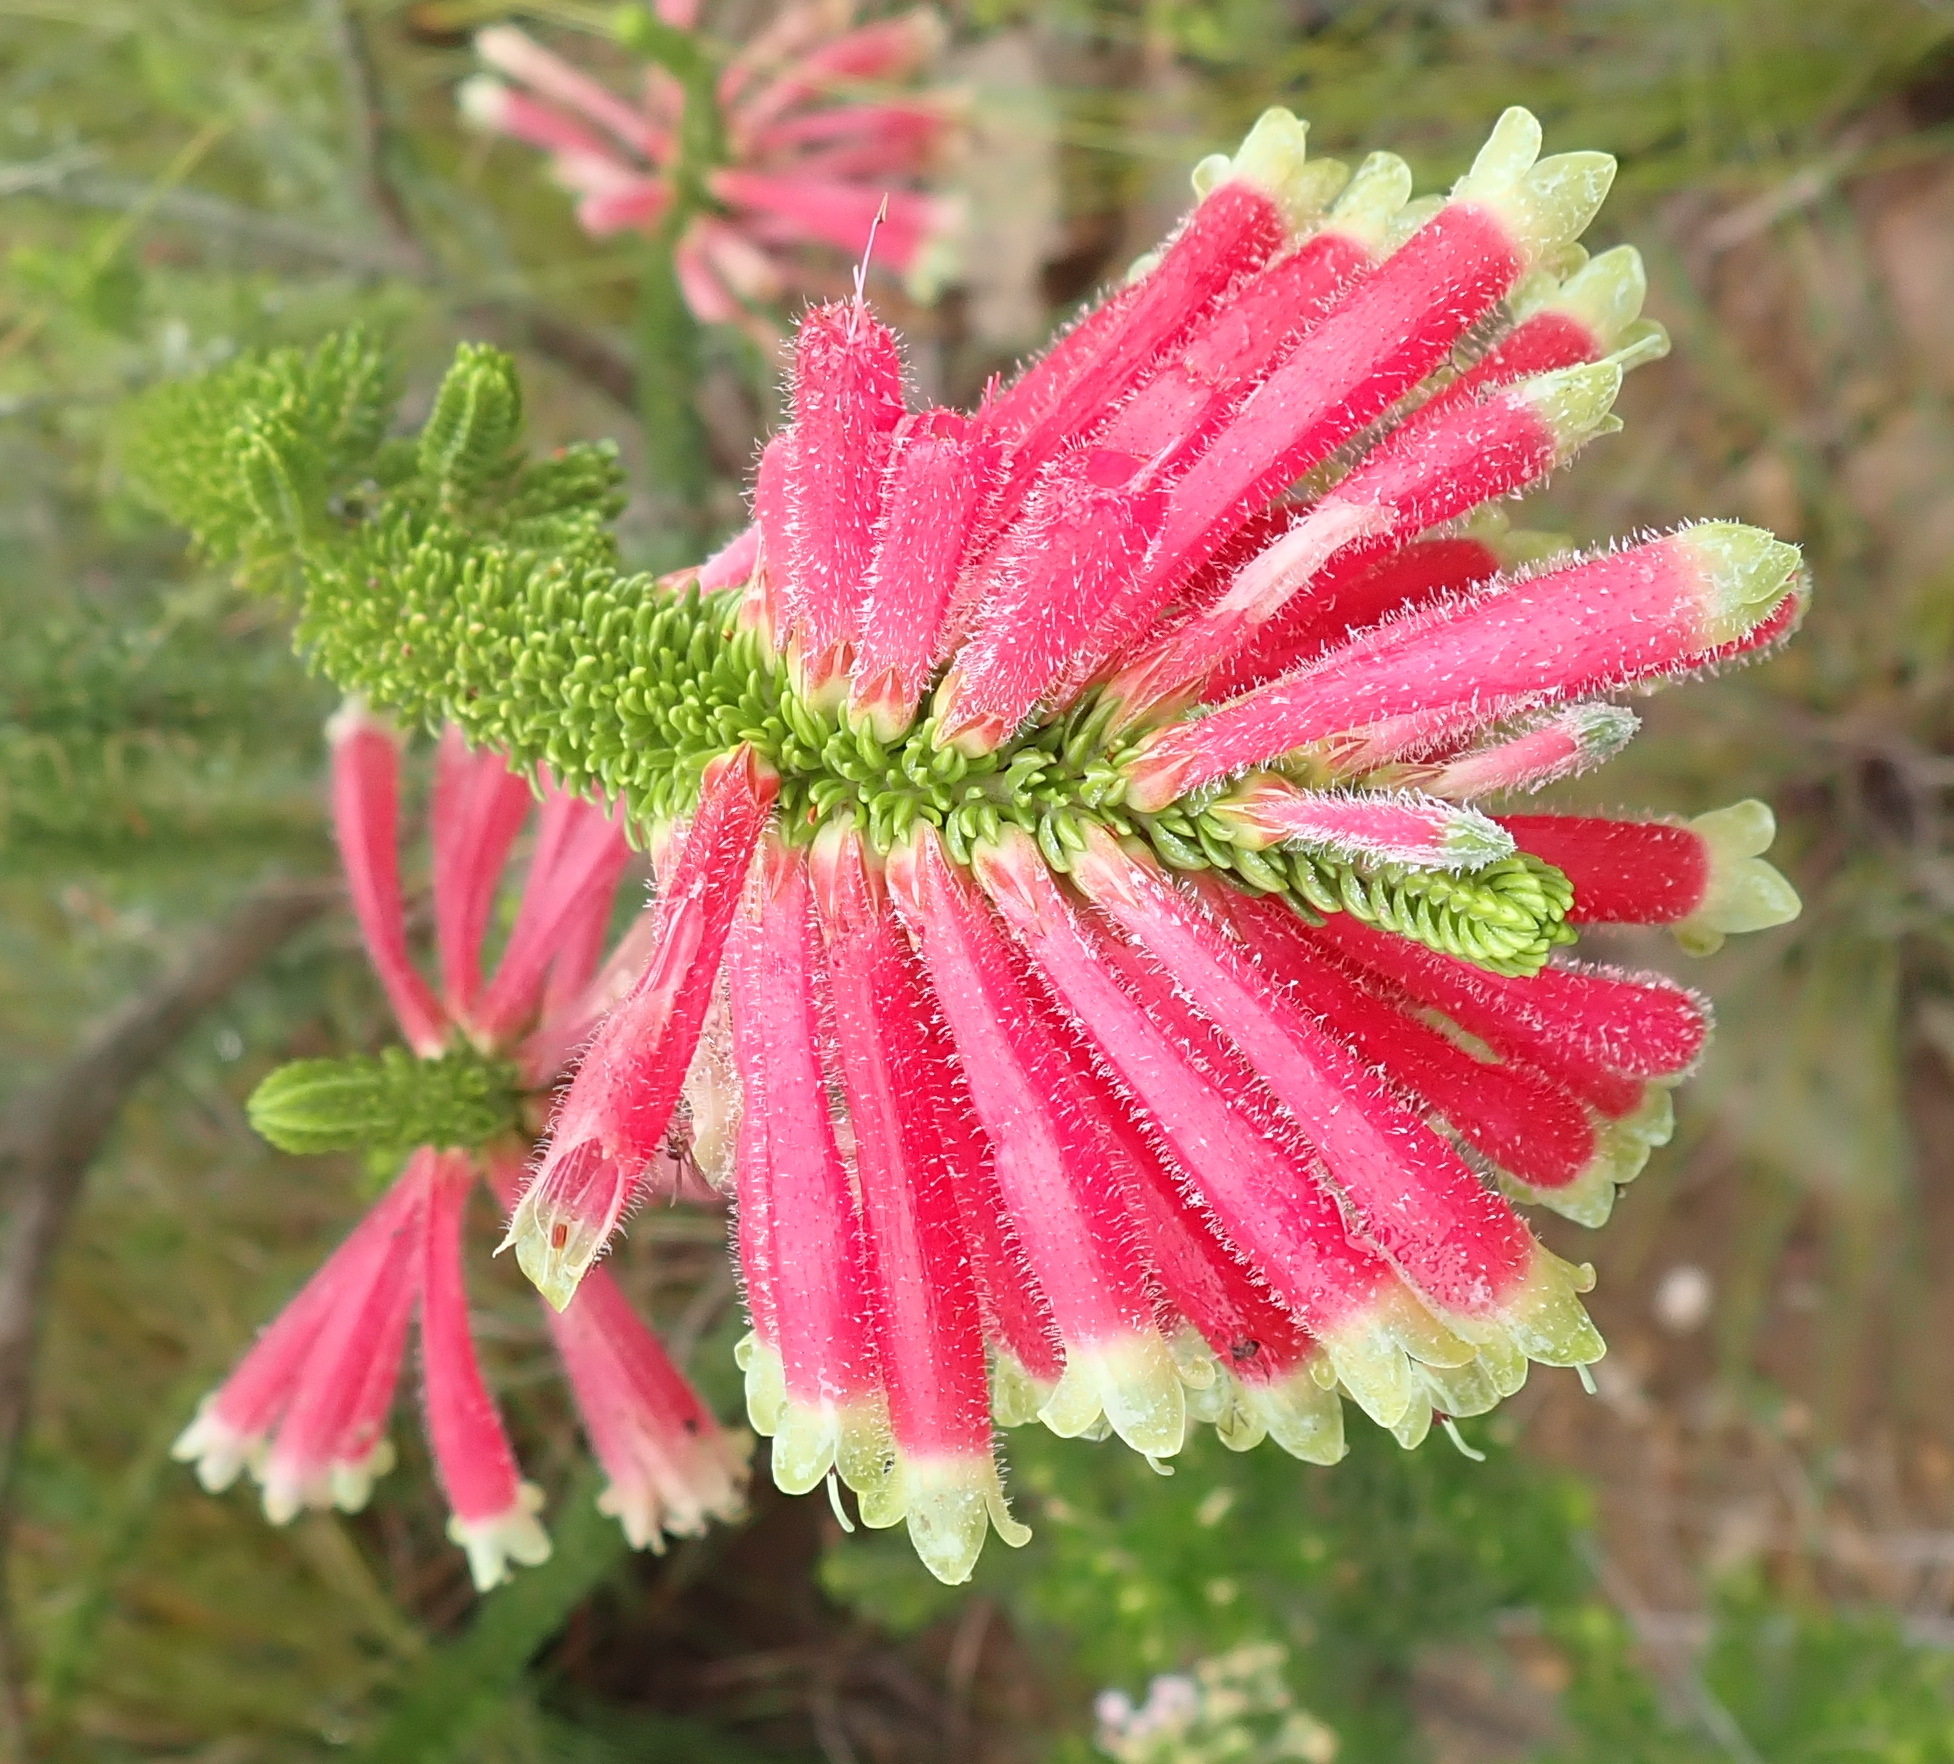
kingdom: Plantae
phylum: Tracheophyta
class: Magnoliopsida
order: Ericales
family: Ericaceae
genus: Erica
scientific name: Erica densifolia
